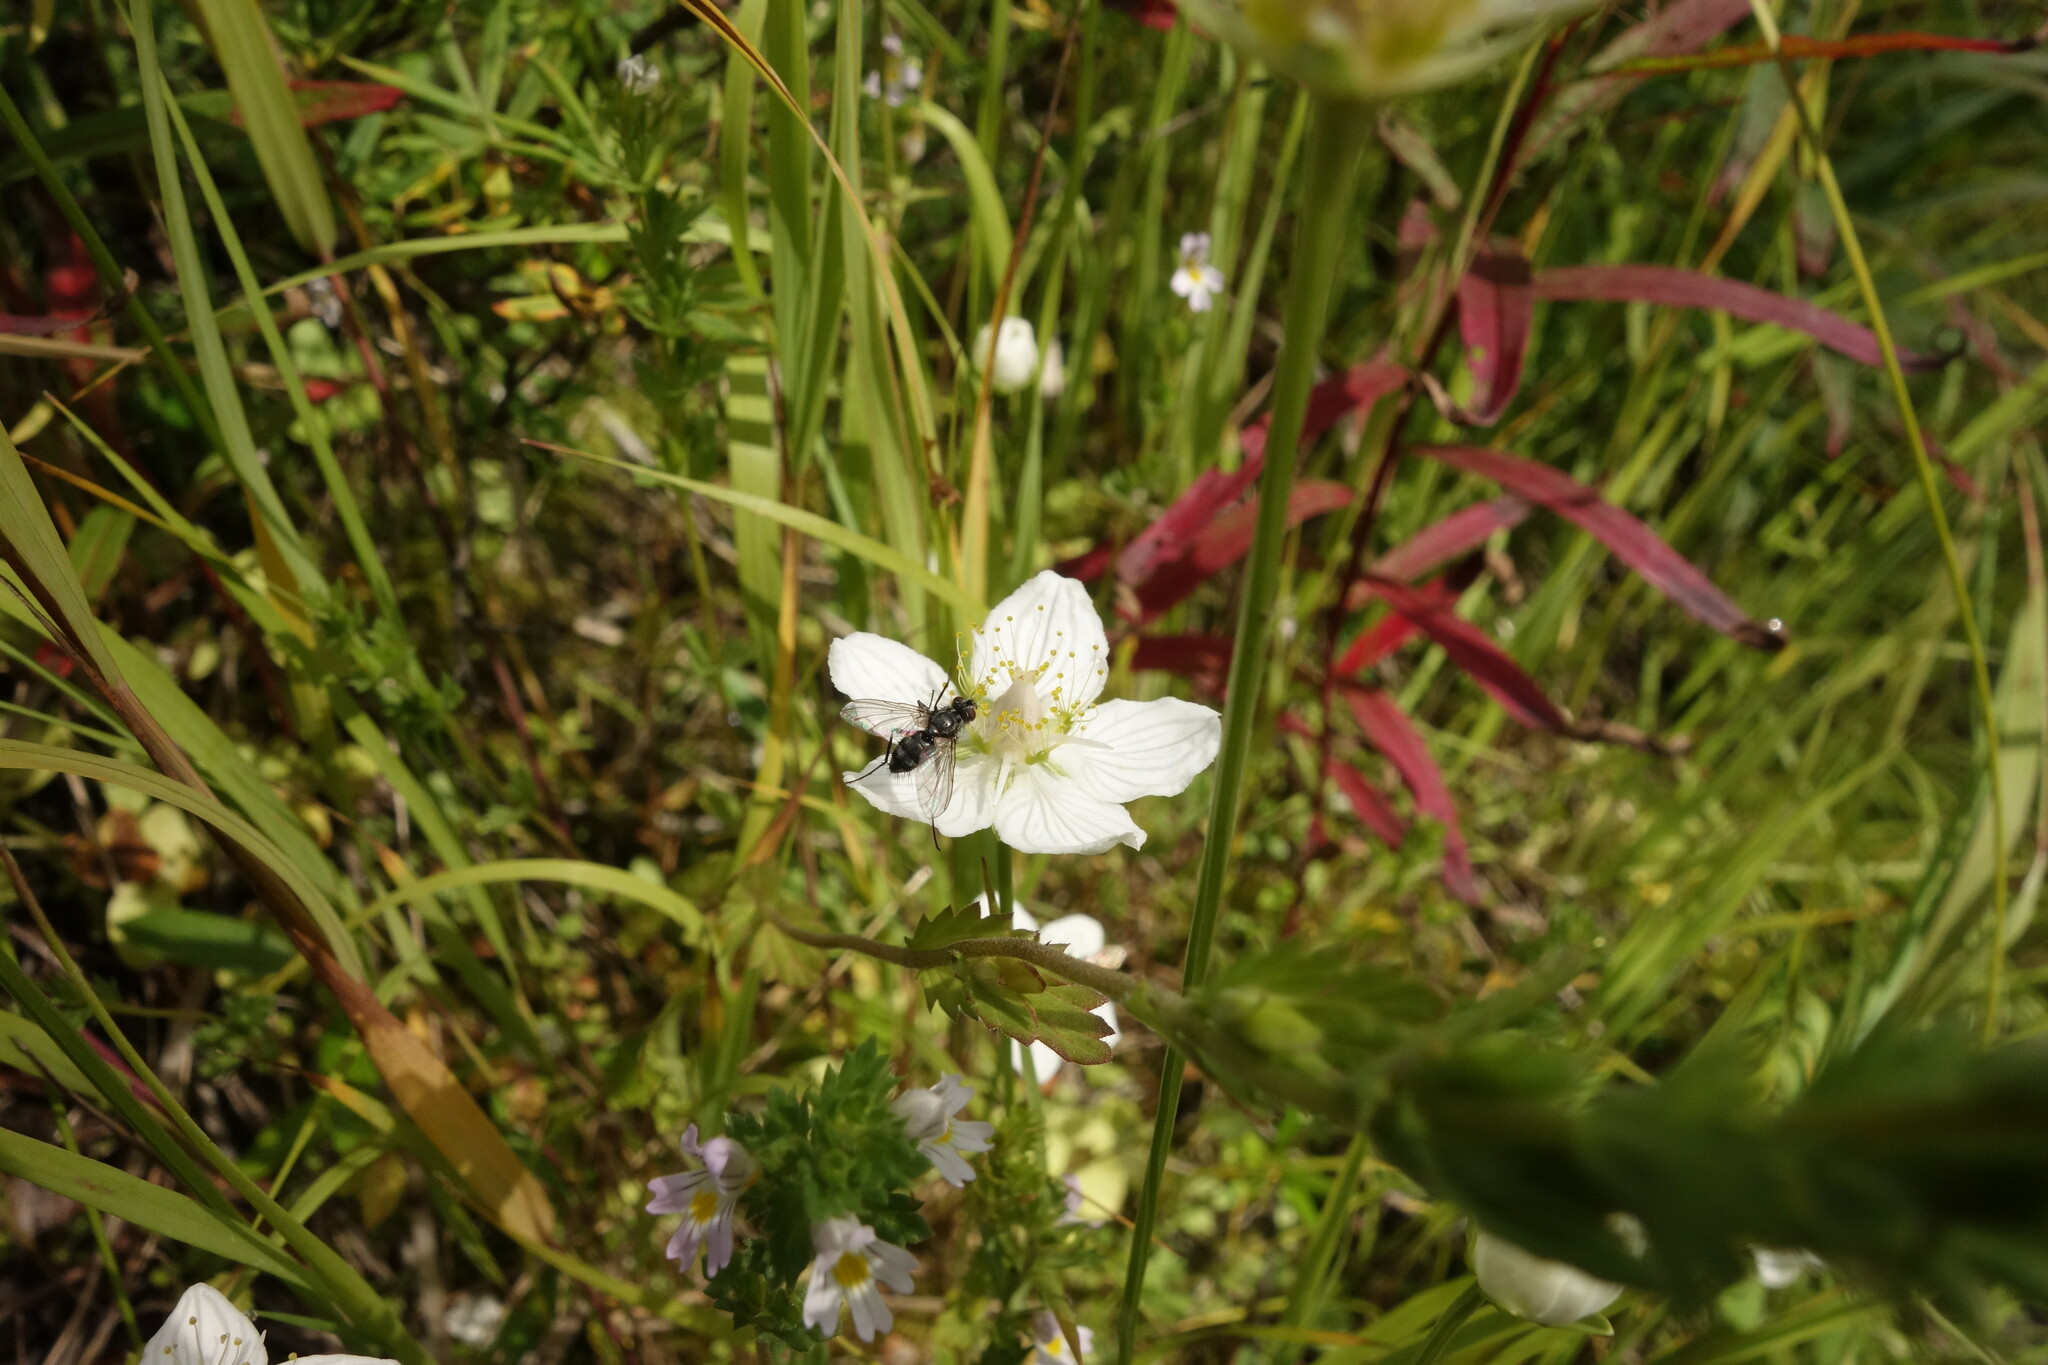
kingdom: Plantae
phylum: Tracheophyta
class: Magnoliopsida
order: Celastrales
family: Parnassiaceae
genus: Parnassia
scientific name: Parnassia palustris
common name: Grass-of-parnassus
